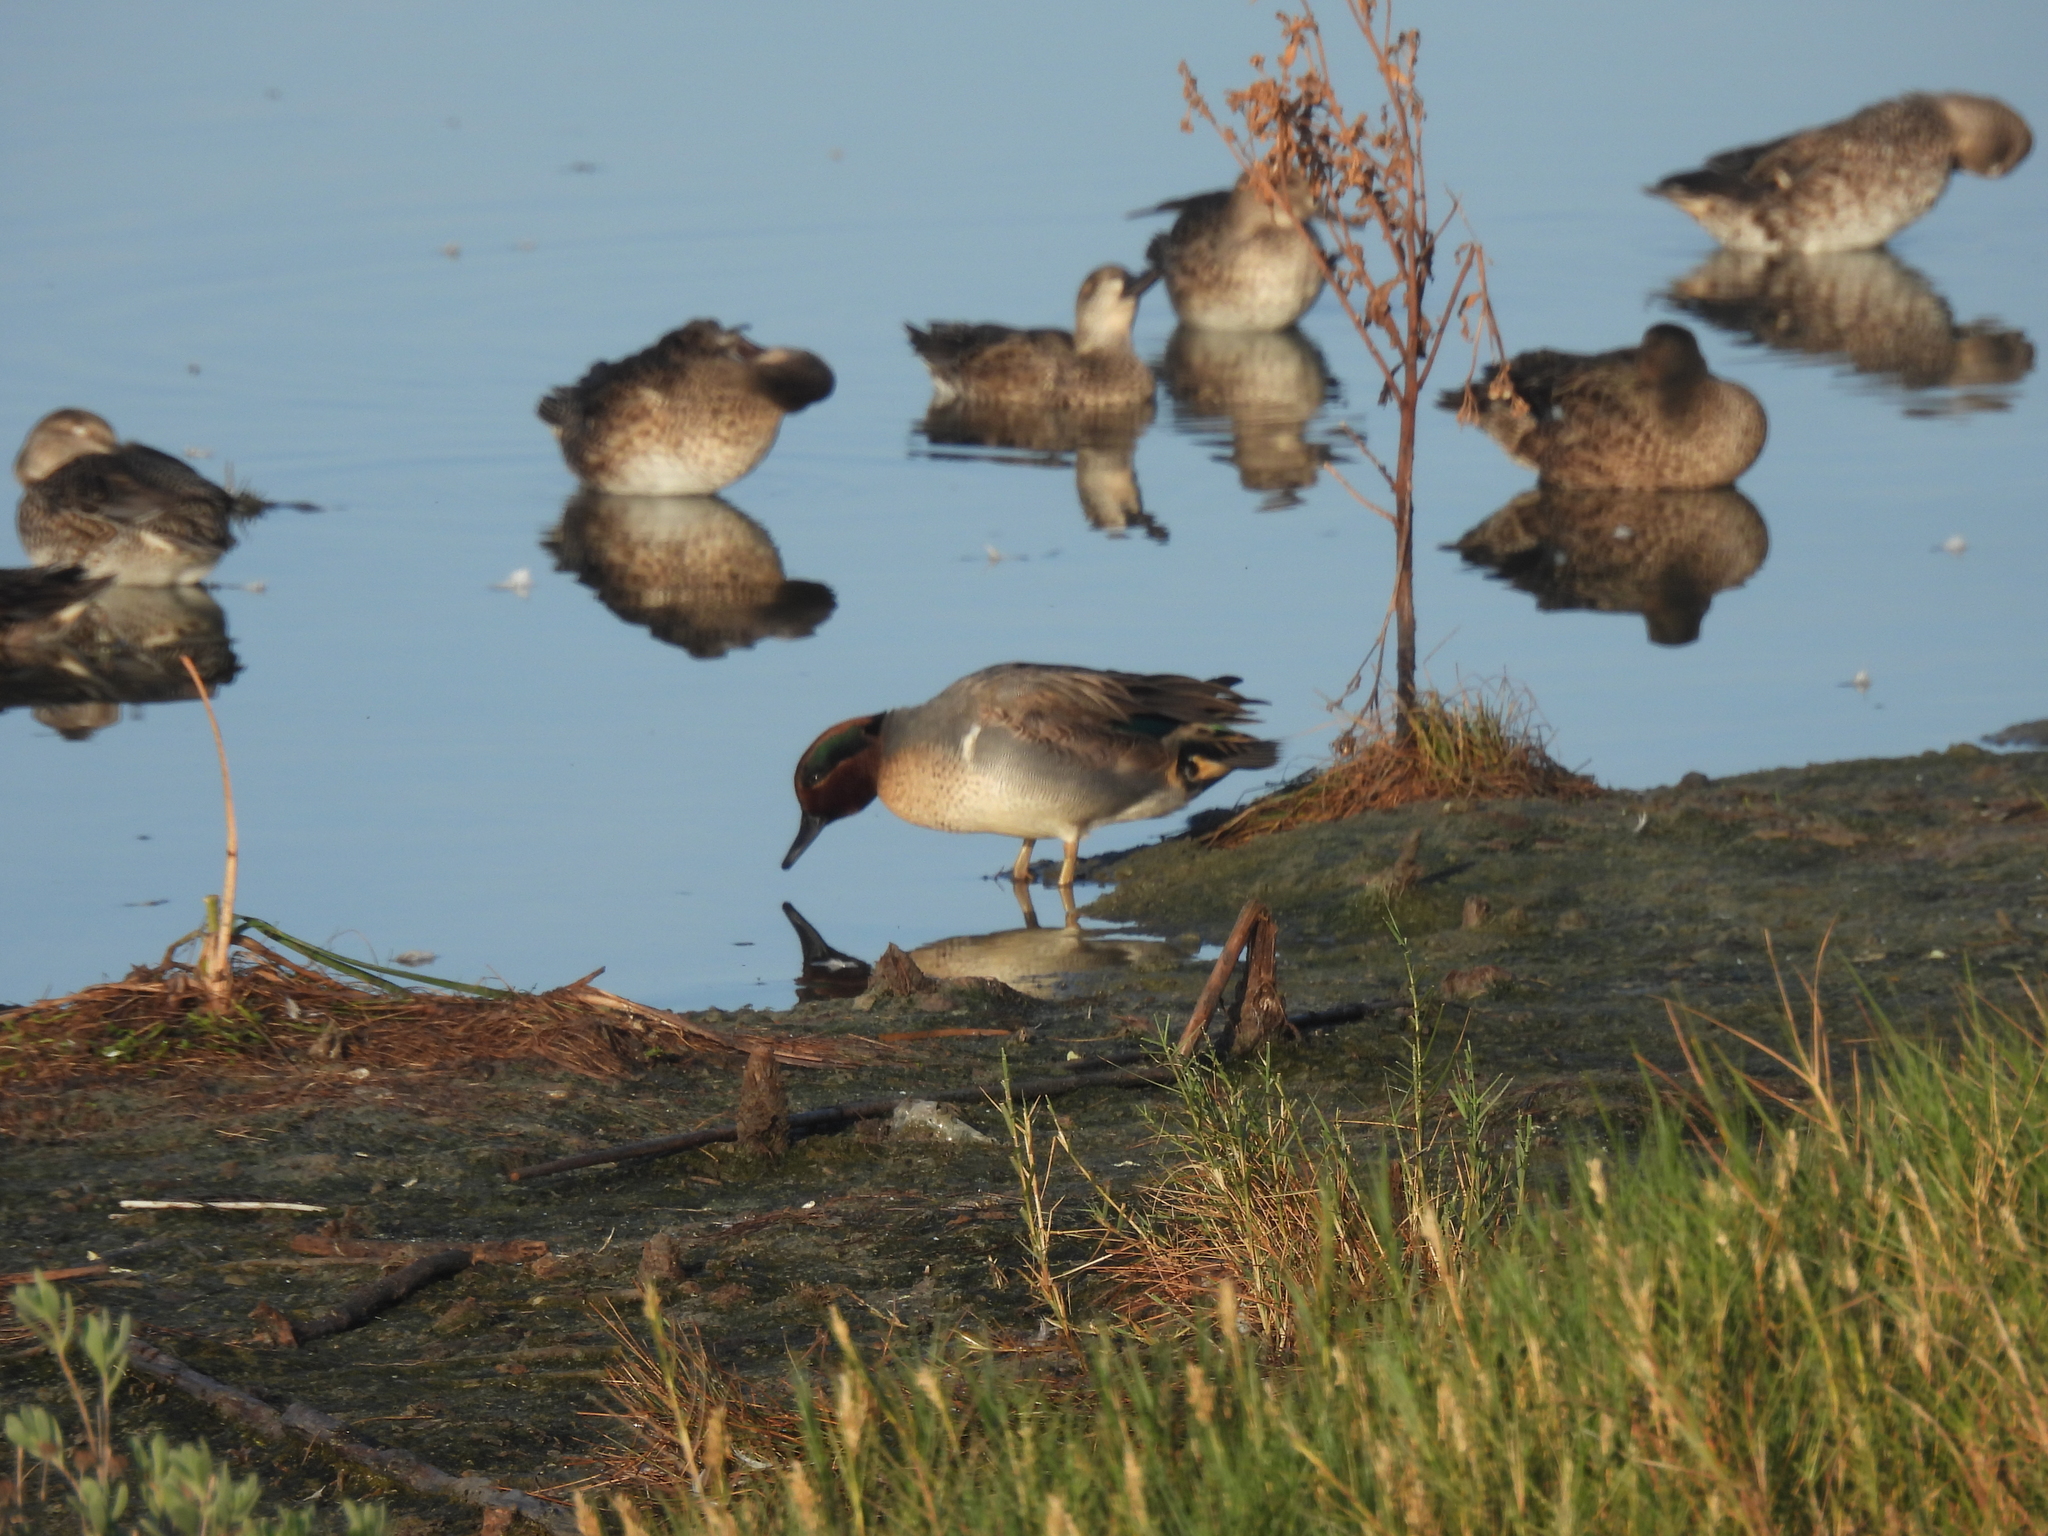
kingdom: Animalia
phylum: Chordata
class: Aves
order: Anseriformes
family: Anatidae
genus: Anas
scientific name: Anas crecca
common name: Eurasian teal
